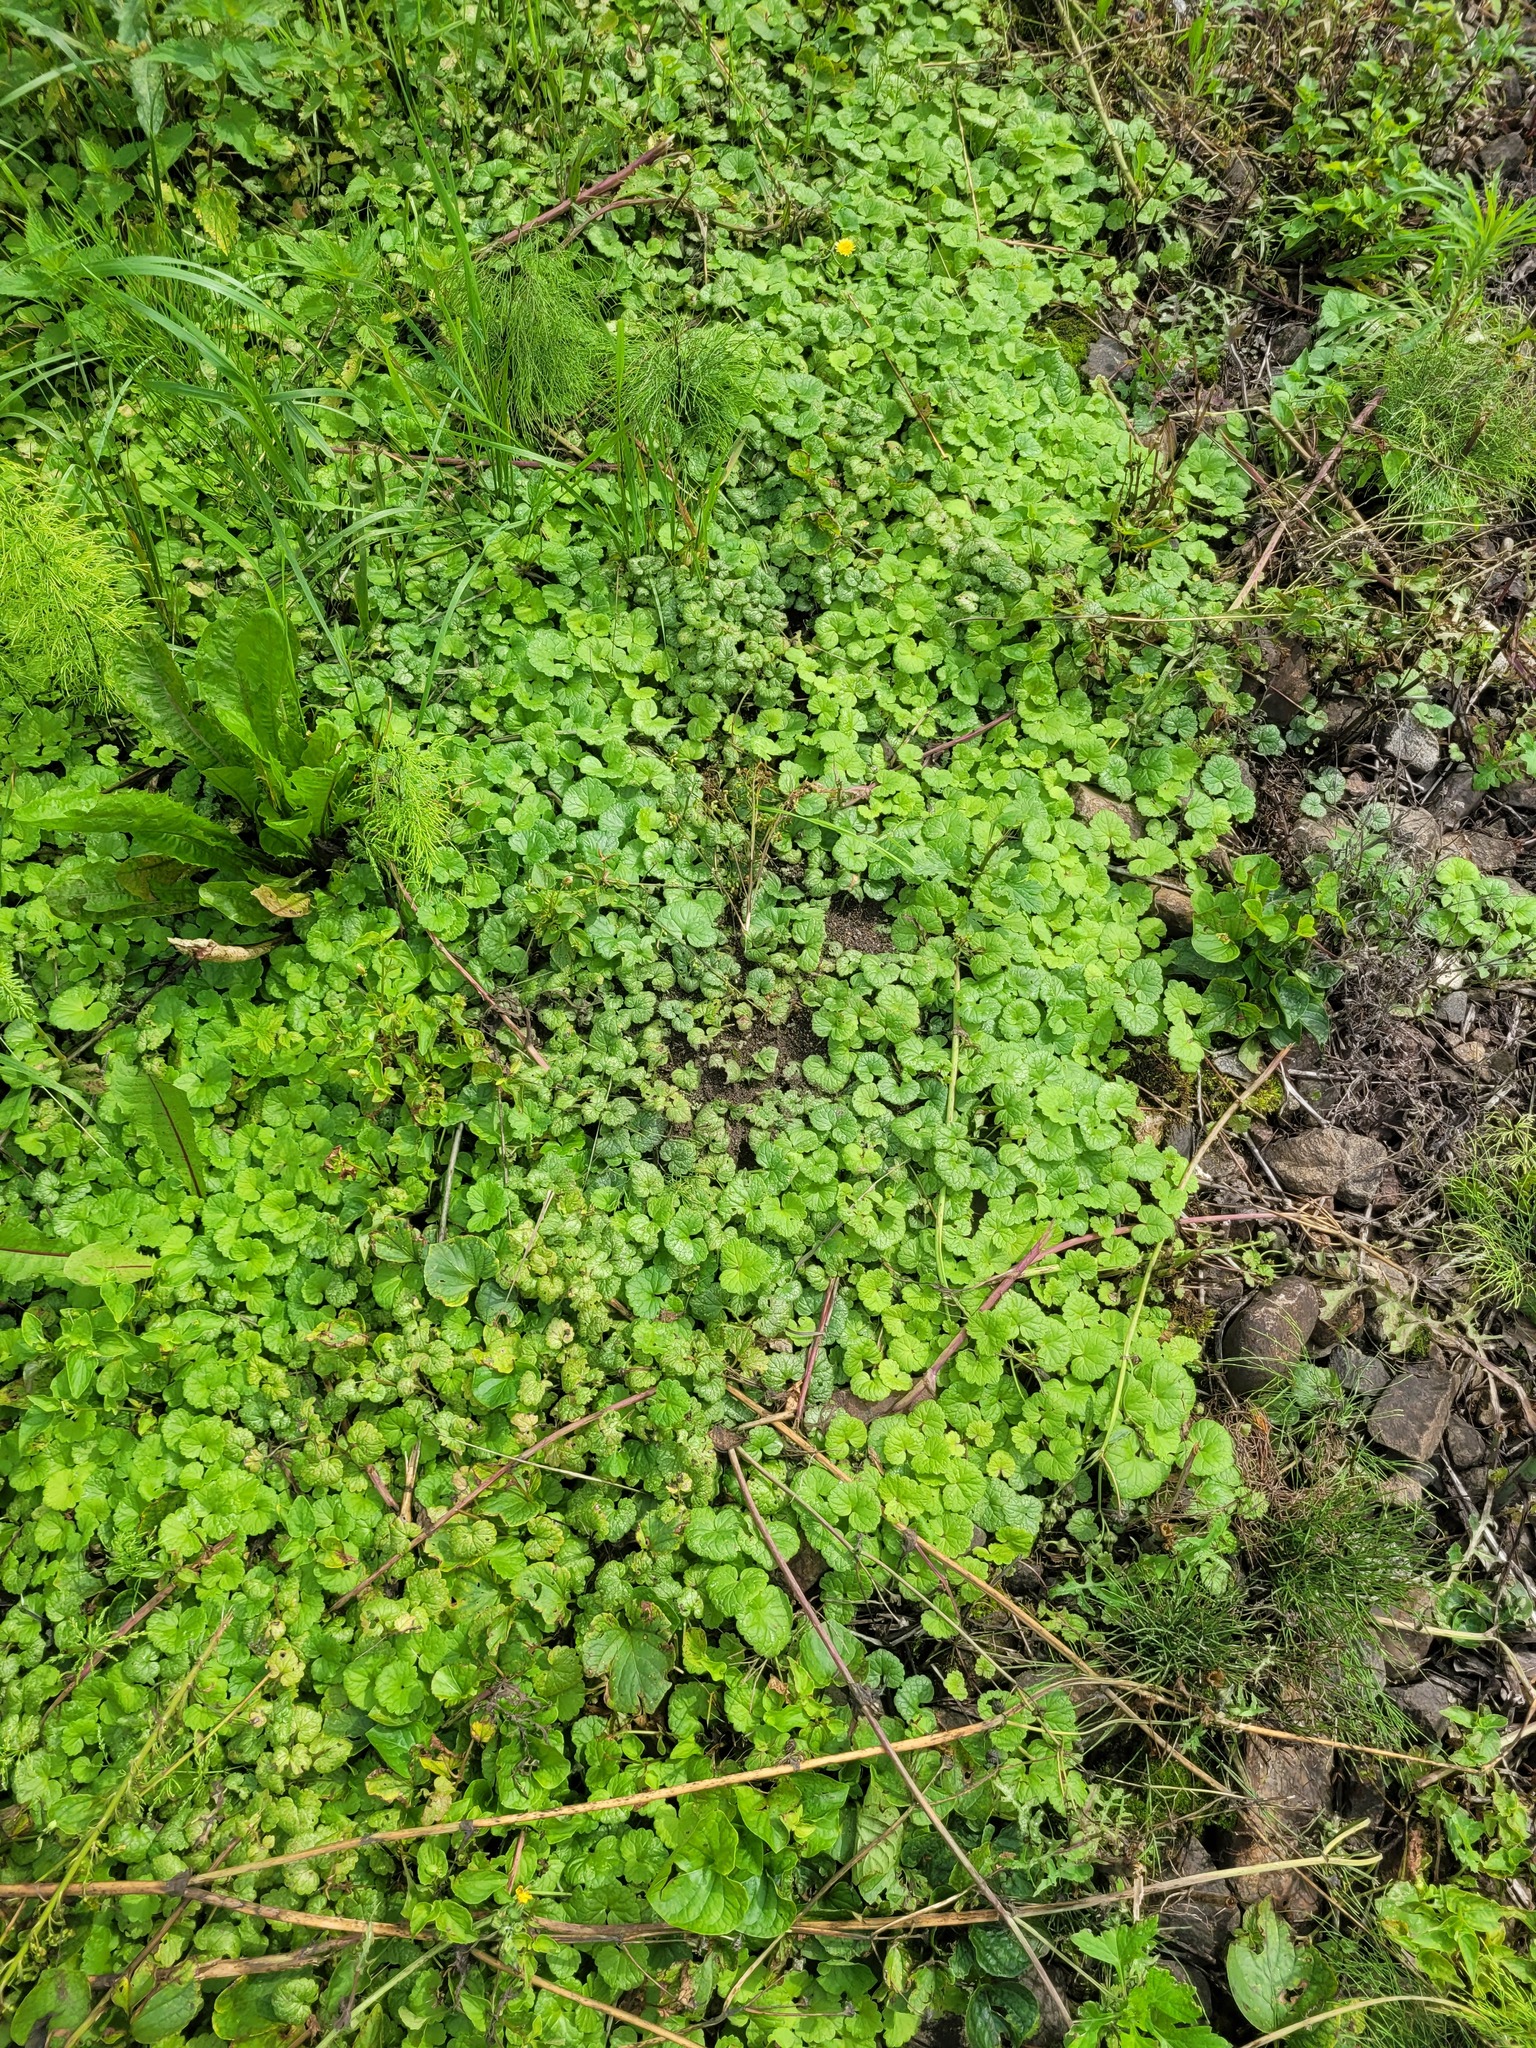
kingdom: Plantae
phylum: Tracheophyta
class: Magnoliopsida
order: Lamiales
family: Lamiaceae
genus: Glechoma
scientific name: Glechoma hederacea
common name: Ground ivy
